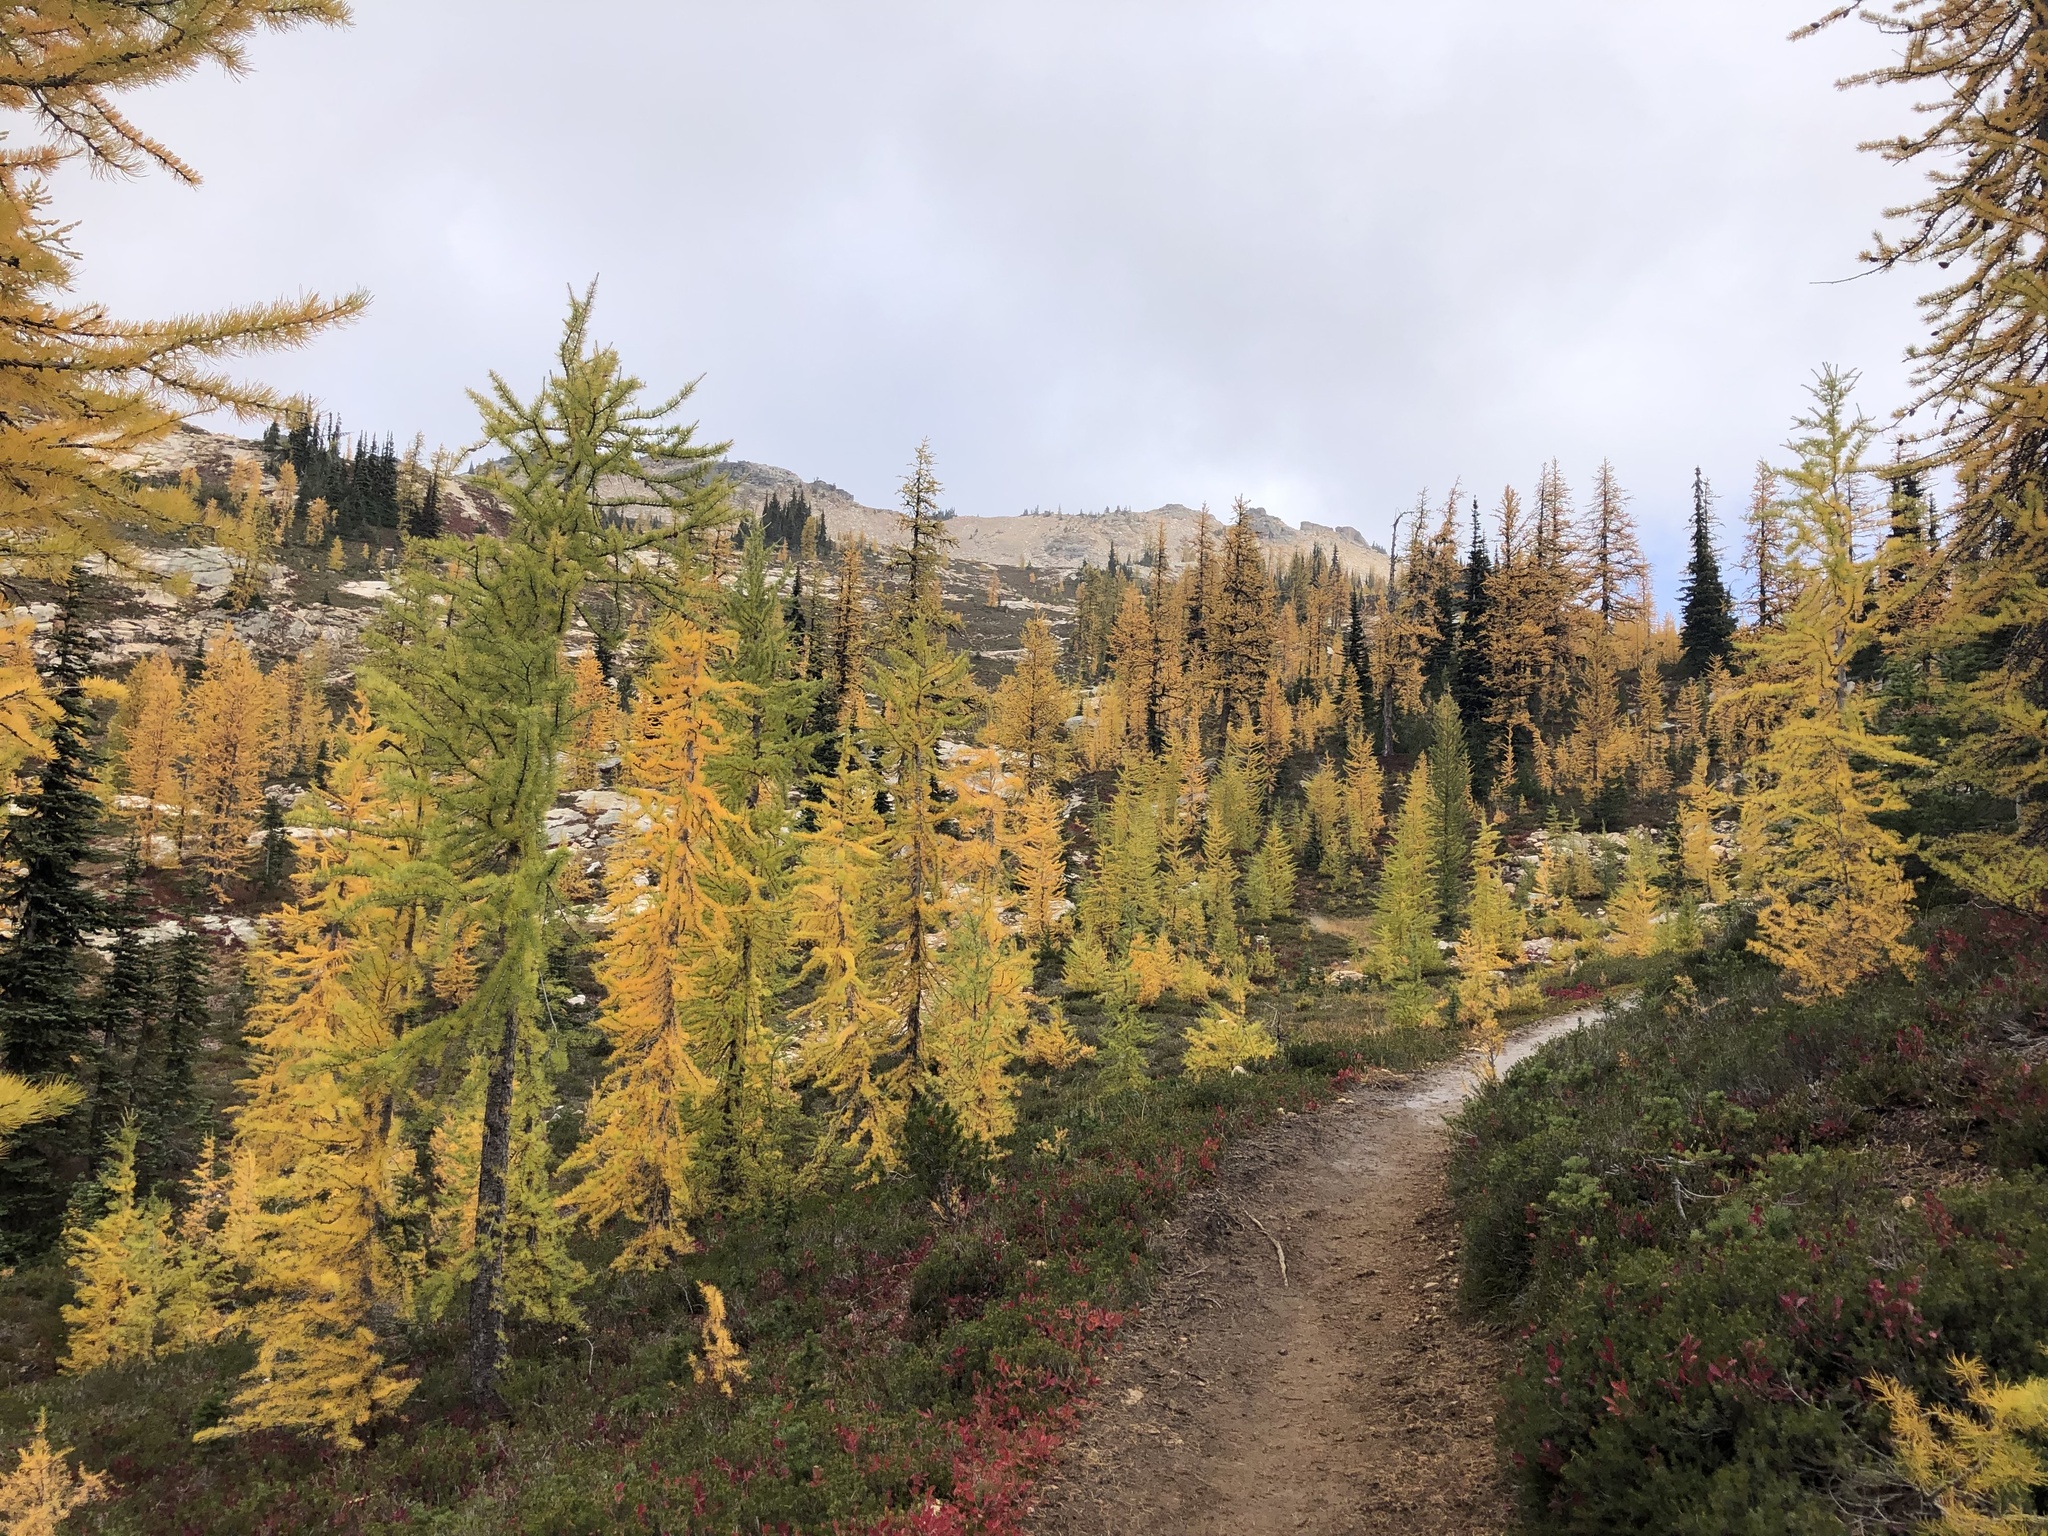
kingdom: Plantae
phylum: Tracheophyta
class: Pinopsida
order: Pinales
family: Pinaceae
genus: Larix
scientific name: Larix lyallii
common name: Alpine larch
